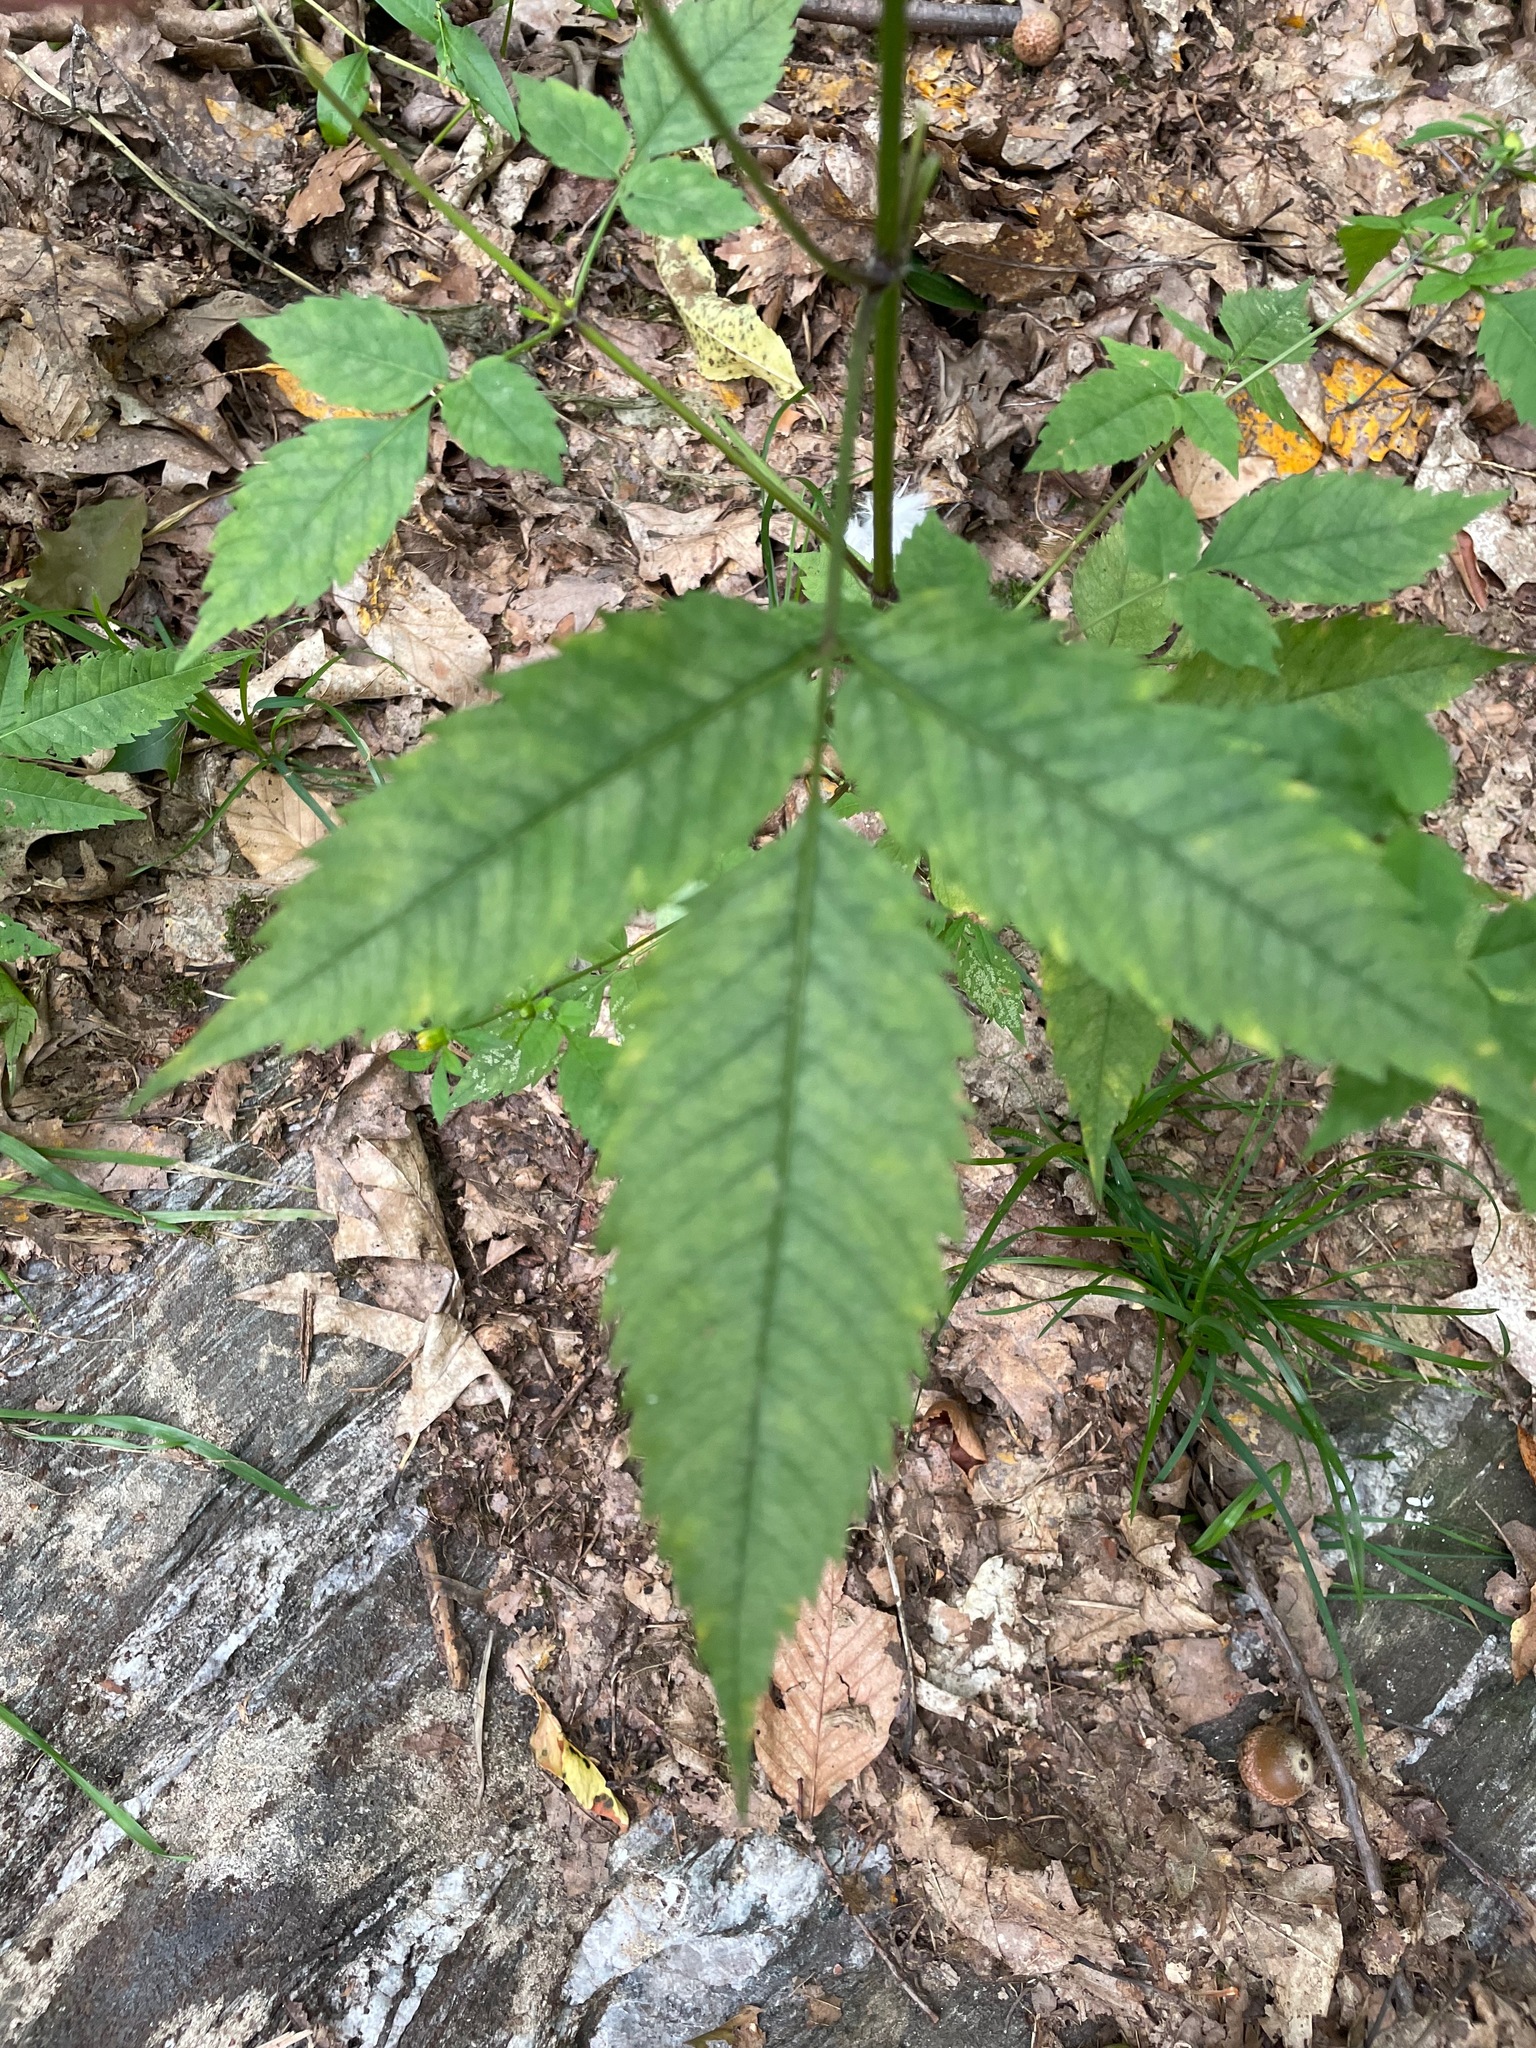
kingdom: Plantae
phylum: Tracheophyta
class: Magnoliopsida
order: Asterales
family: Asteraceae
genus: Bidens
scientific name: Bidens frondosa
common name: Beggarticks
